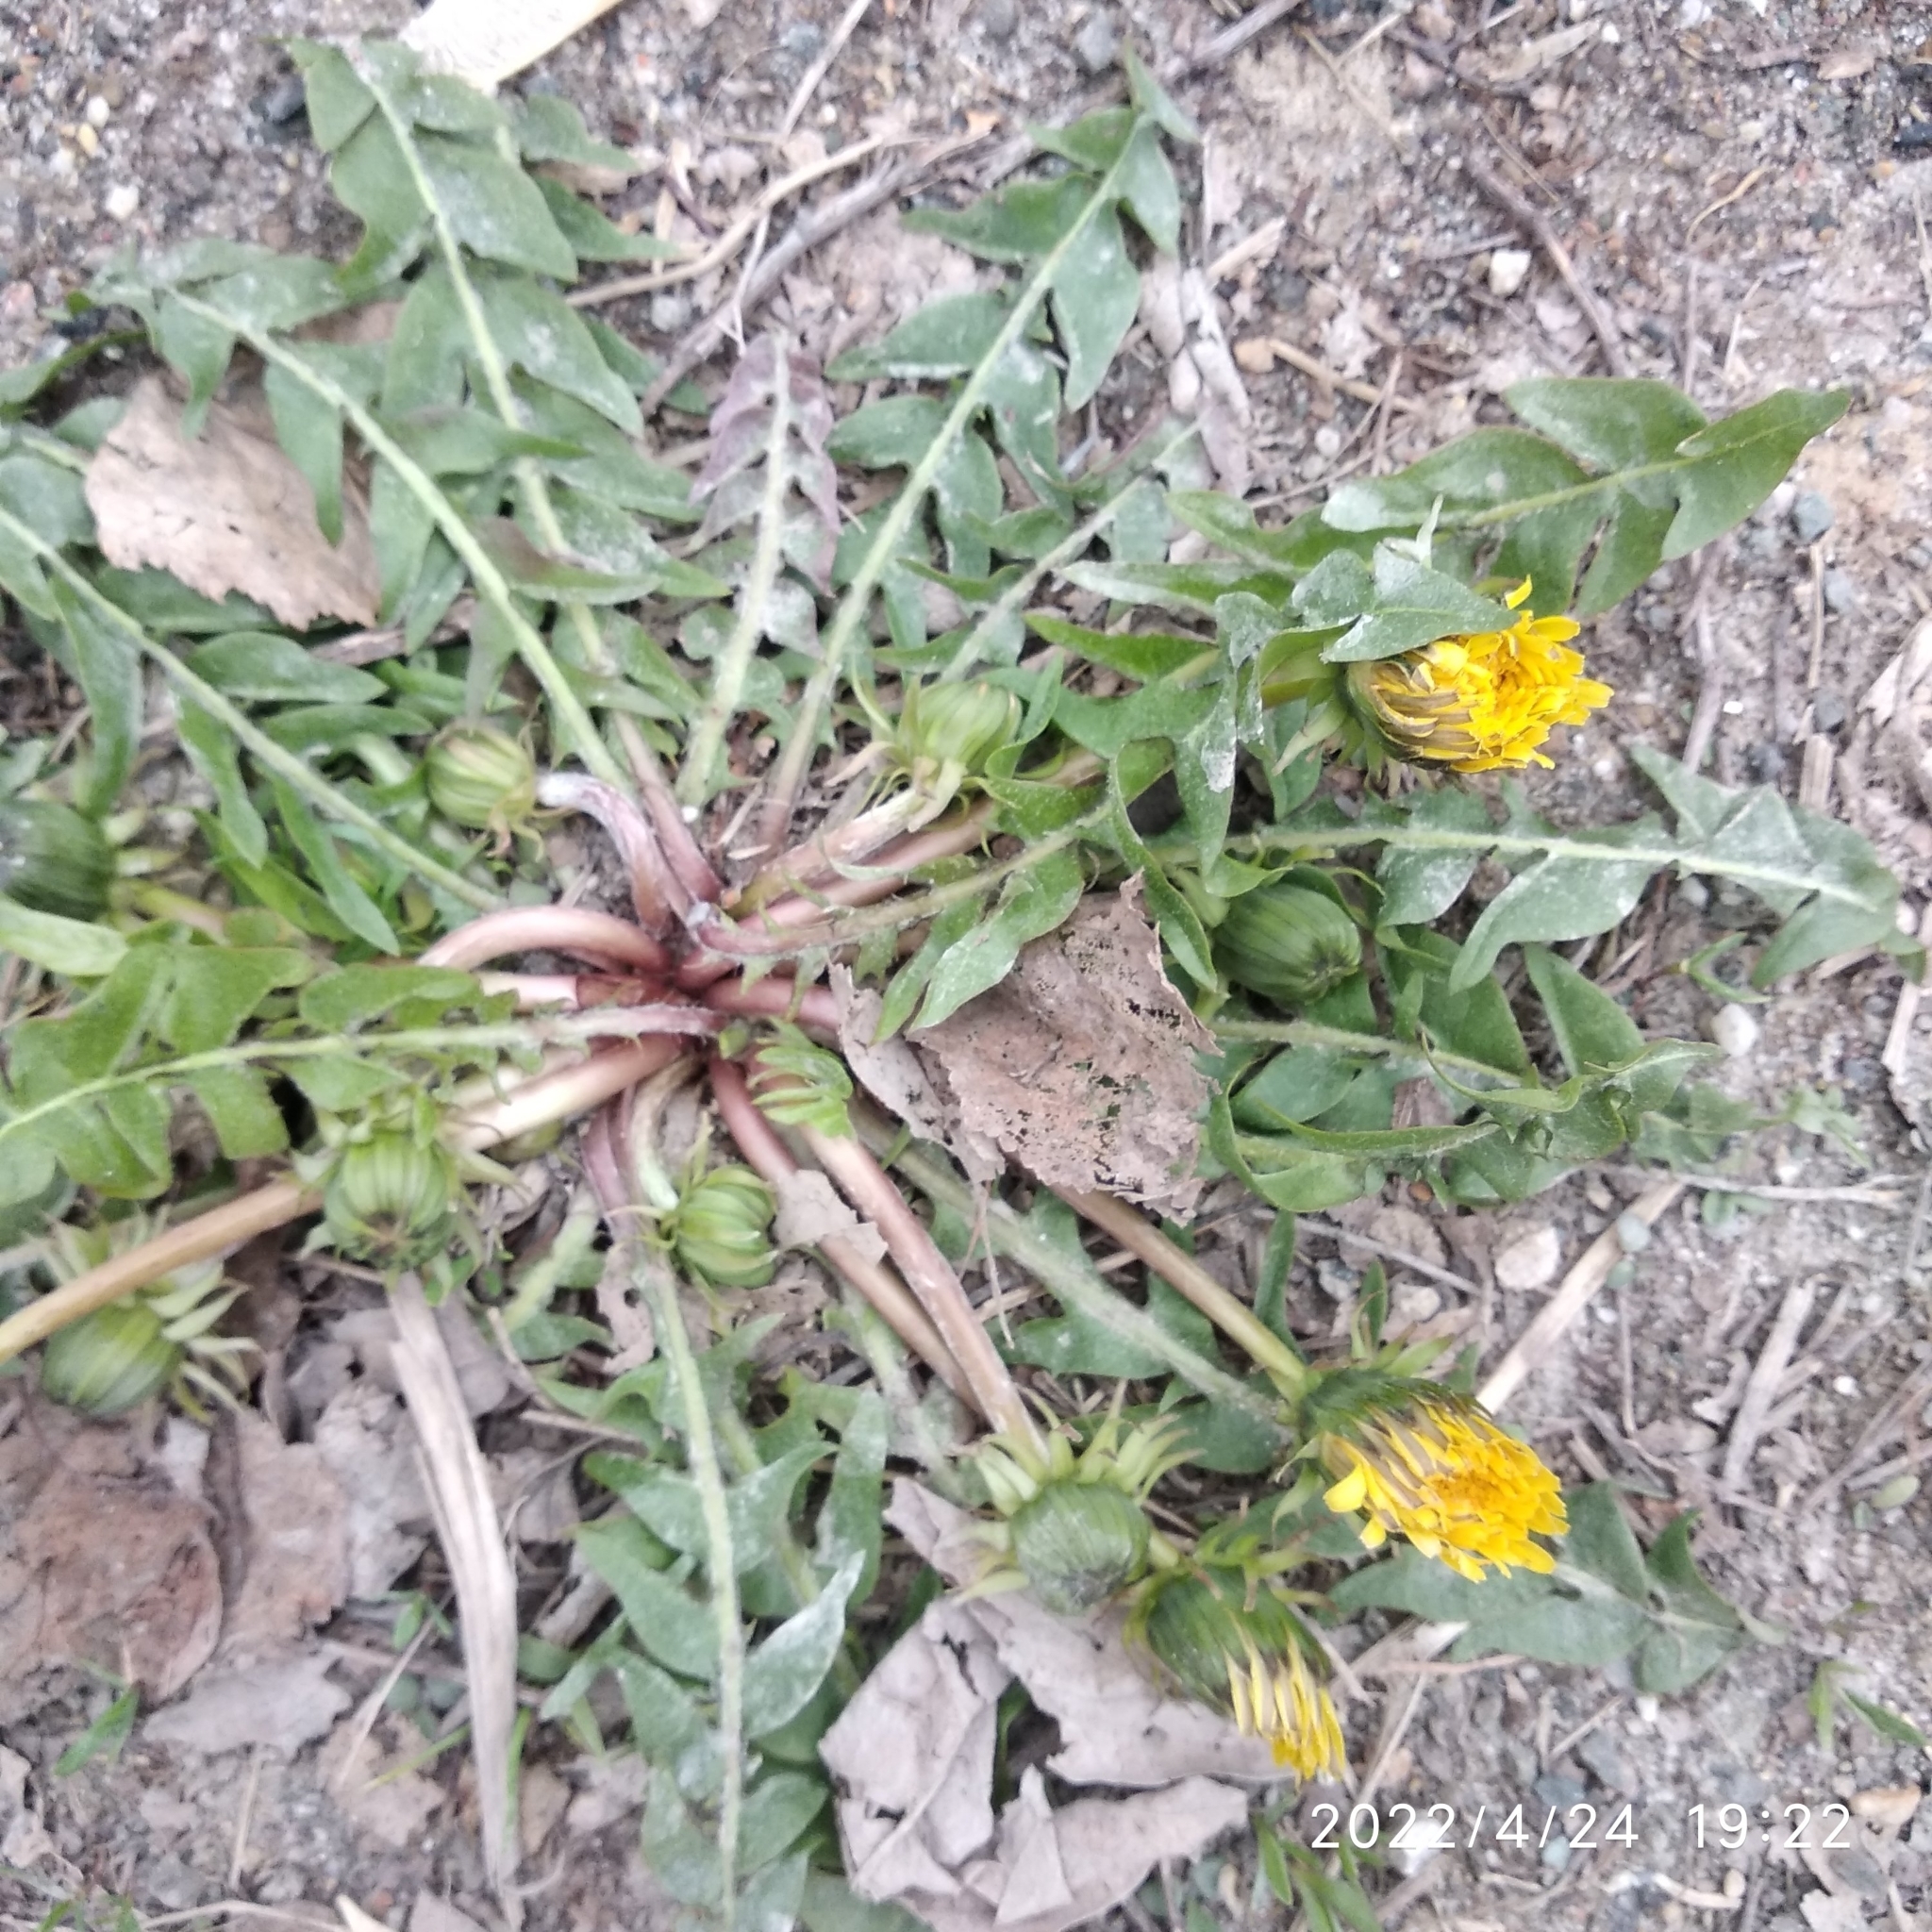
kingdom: Plantae
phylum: Tracheophyta
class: Magnoliopsida
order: Asterales
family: Asteraceae
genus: Taraxacum
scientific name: Taraxacum officinale
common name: Common dandelion
